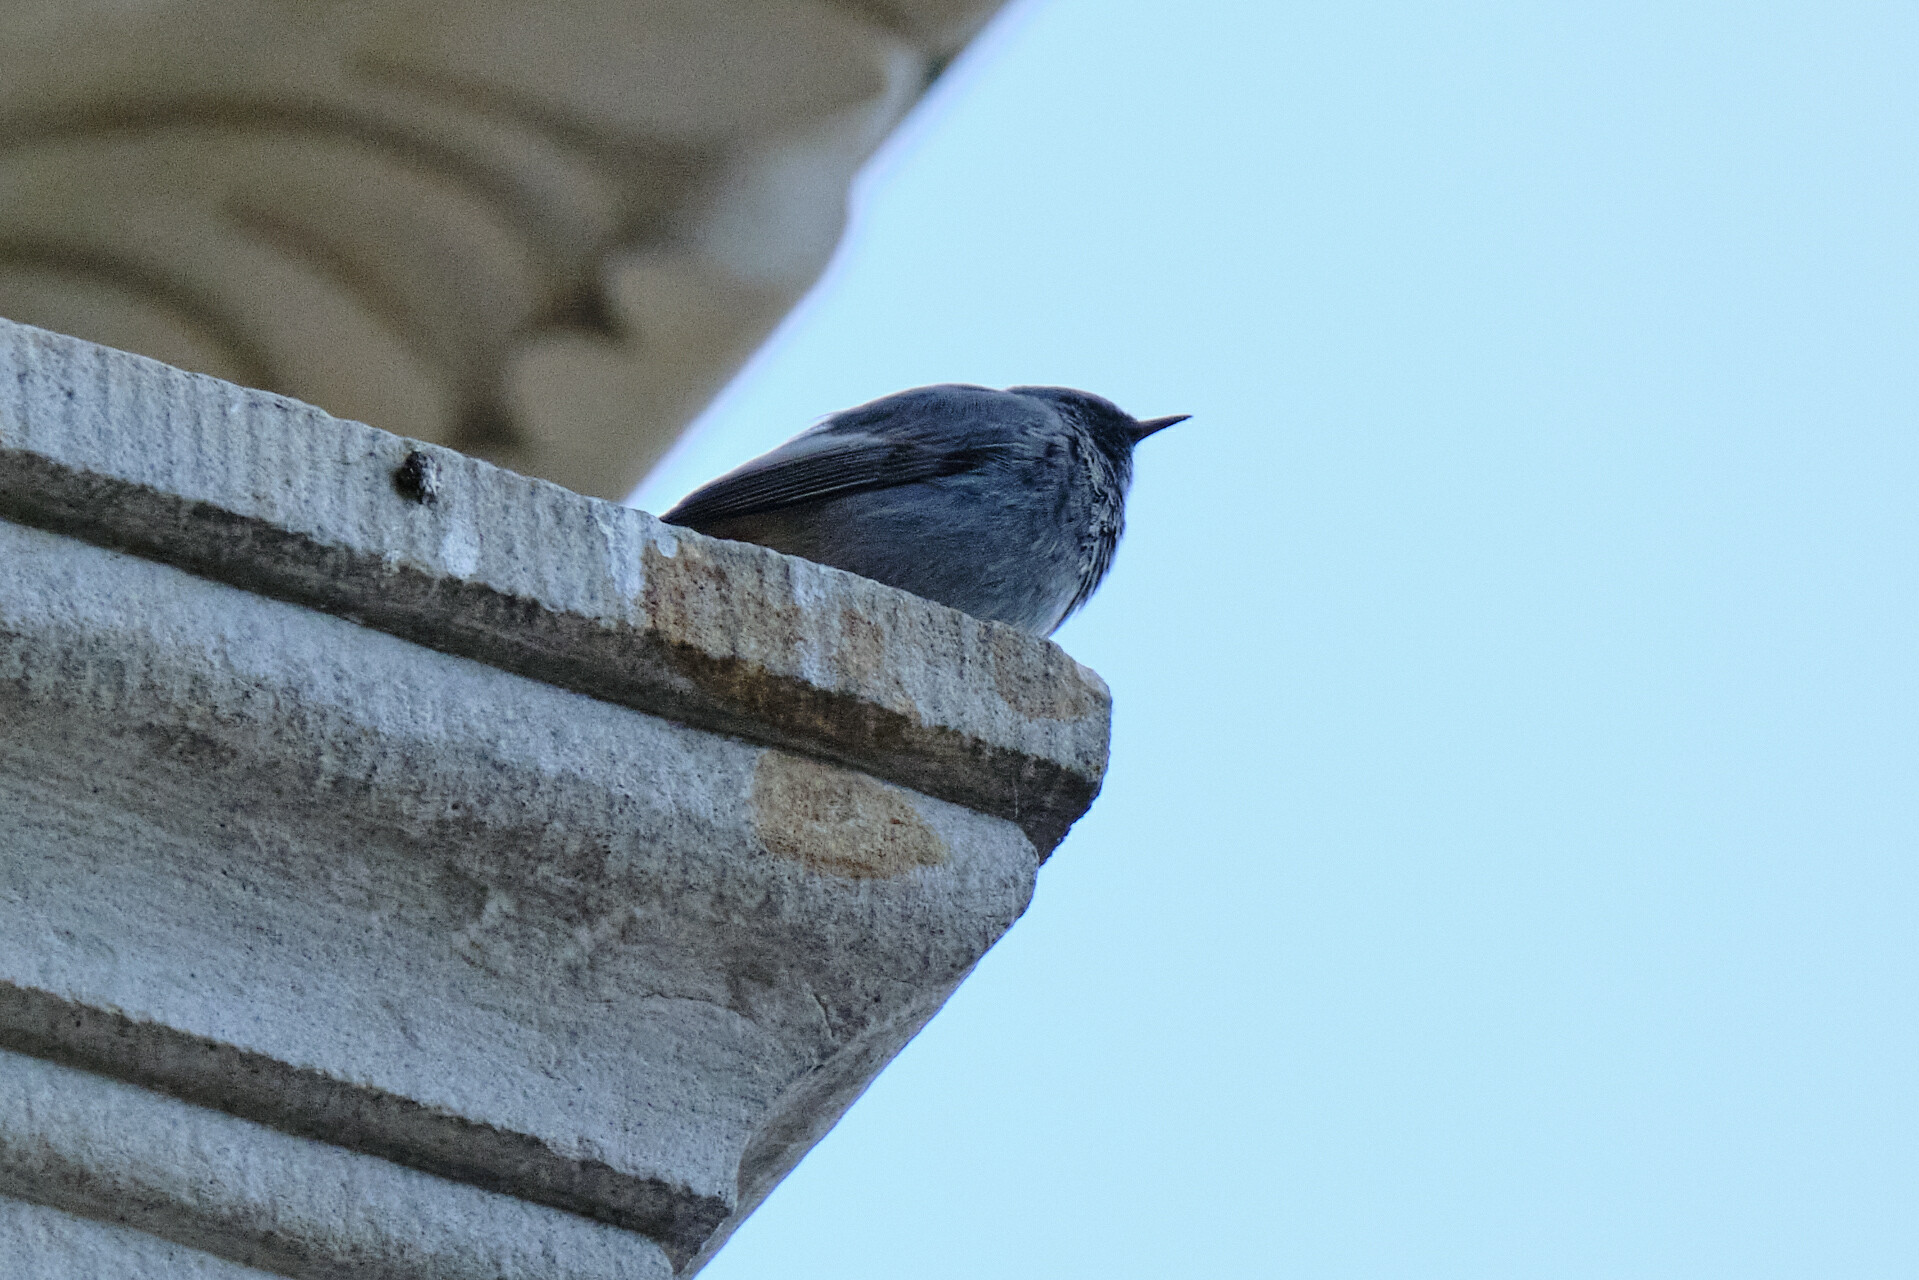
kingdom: Animalia
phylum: Chordata
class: Aves
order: Passeriformes
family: Muscicapidae
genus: Phoenicurus
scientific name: Phoenicurus ochruros
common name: Black redstart
